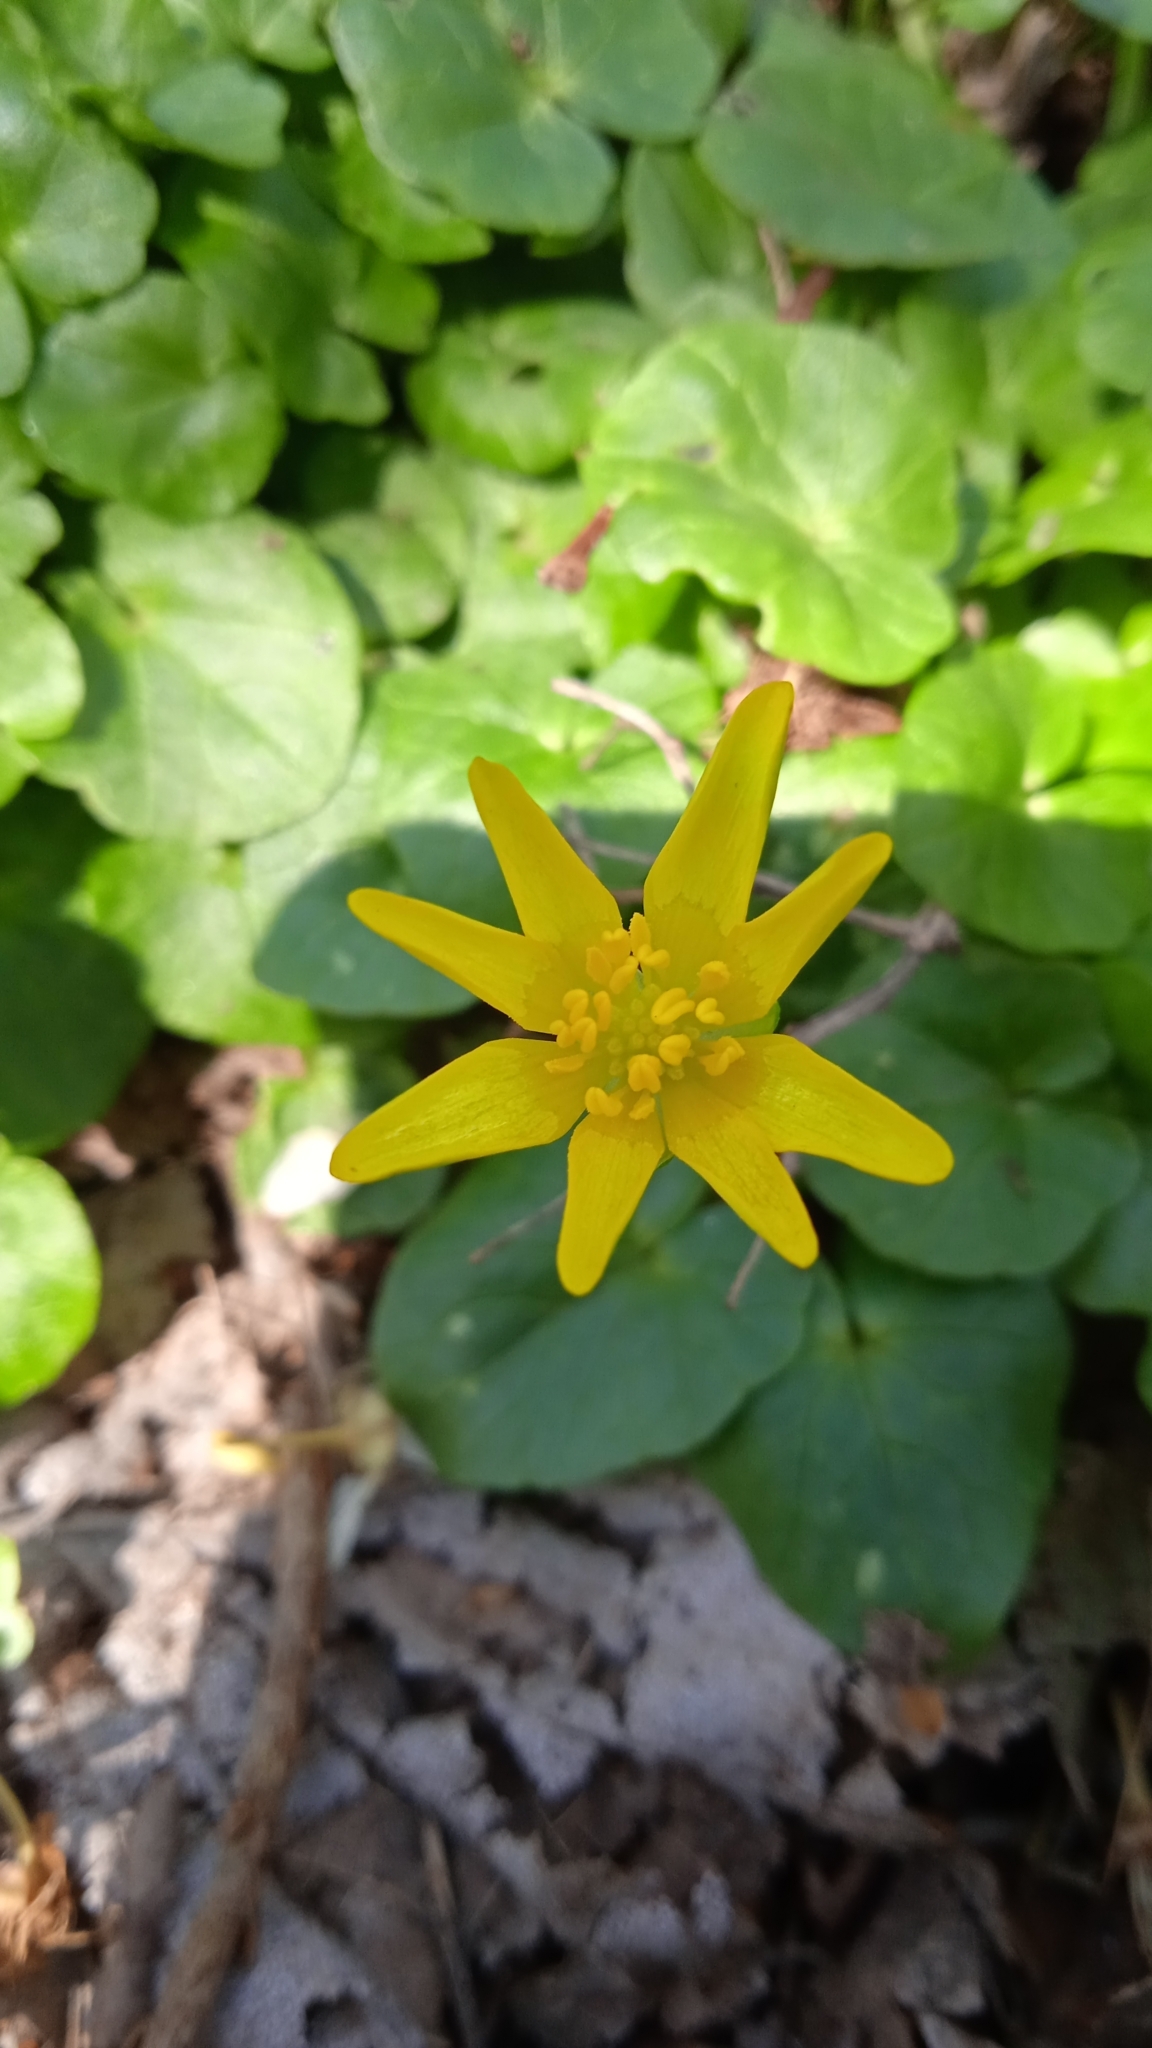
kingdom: Plantae
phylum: Tracheophyta
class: Magnoliopsida
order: Ranunculales
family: Ranunculaceae
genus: Ficaria
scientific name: Ficaria verna
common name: Lesser celandine
